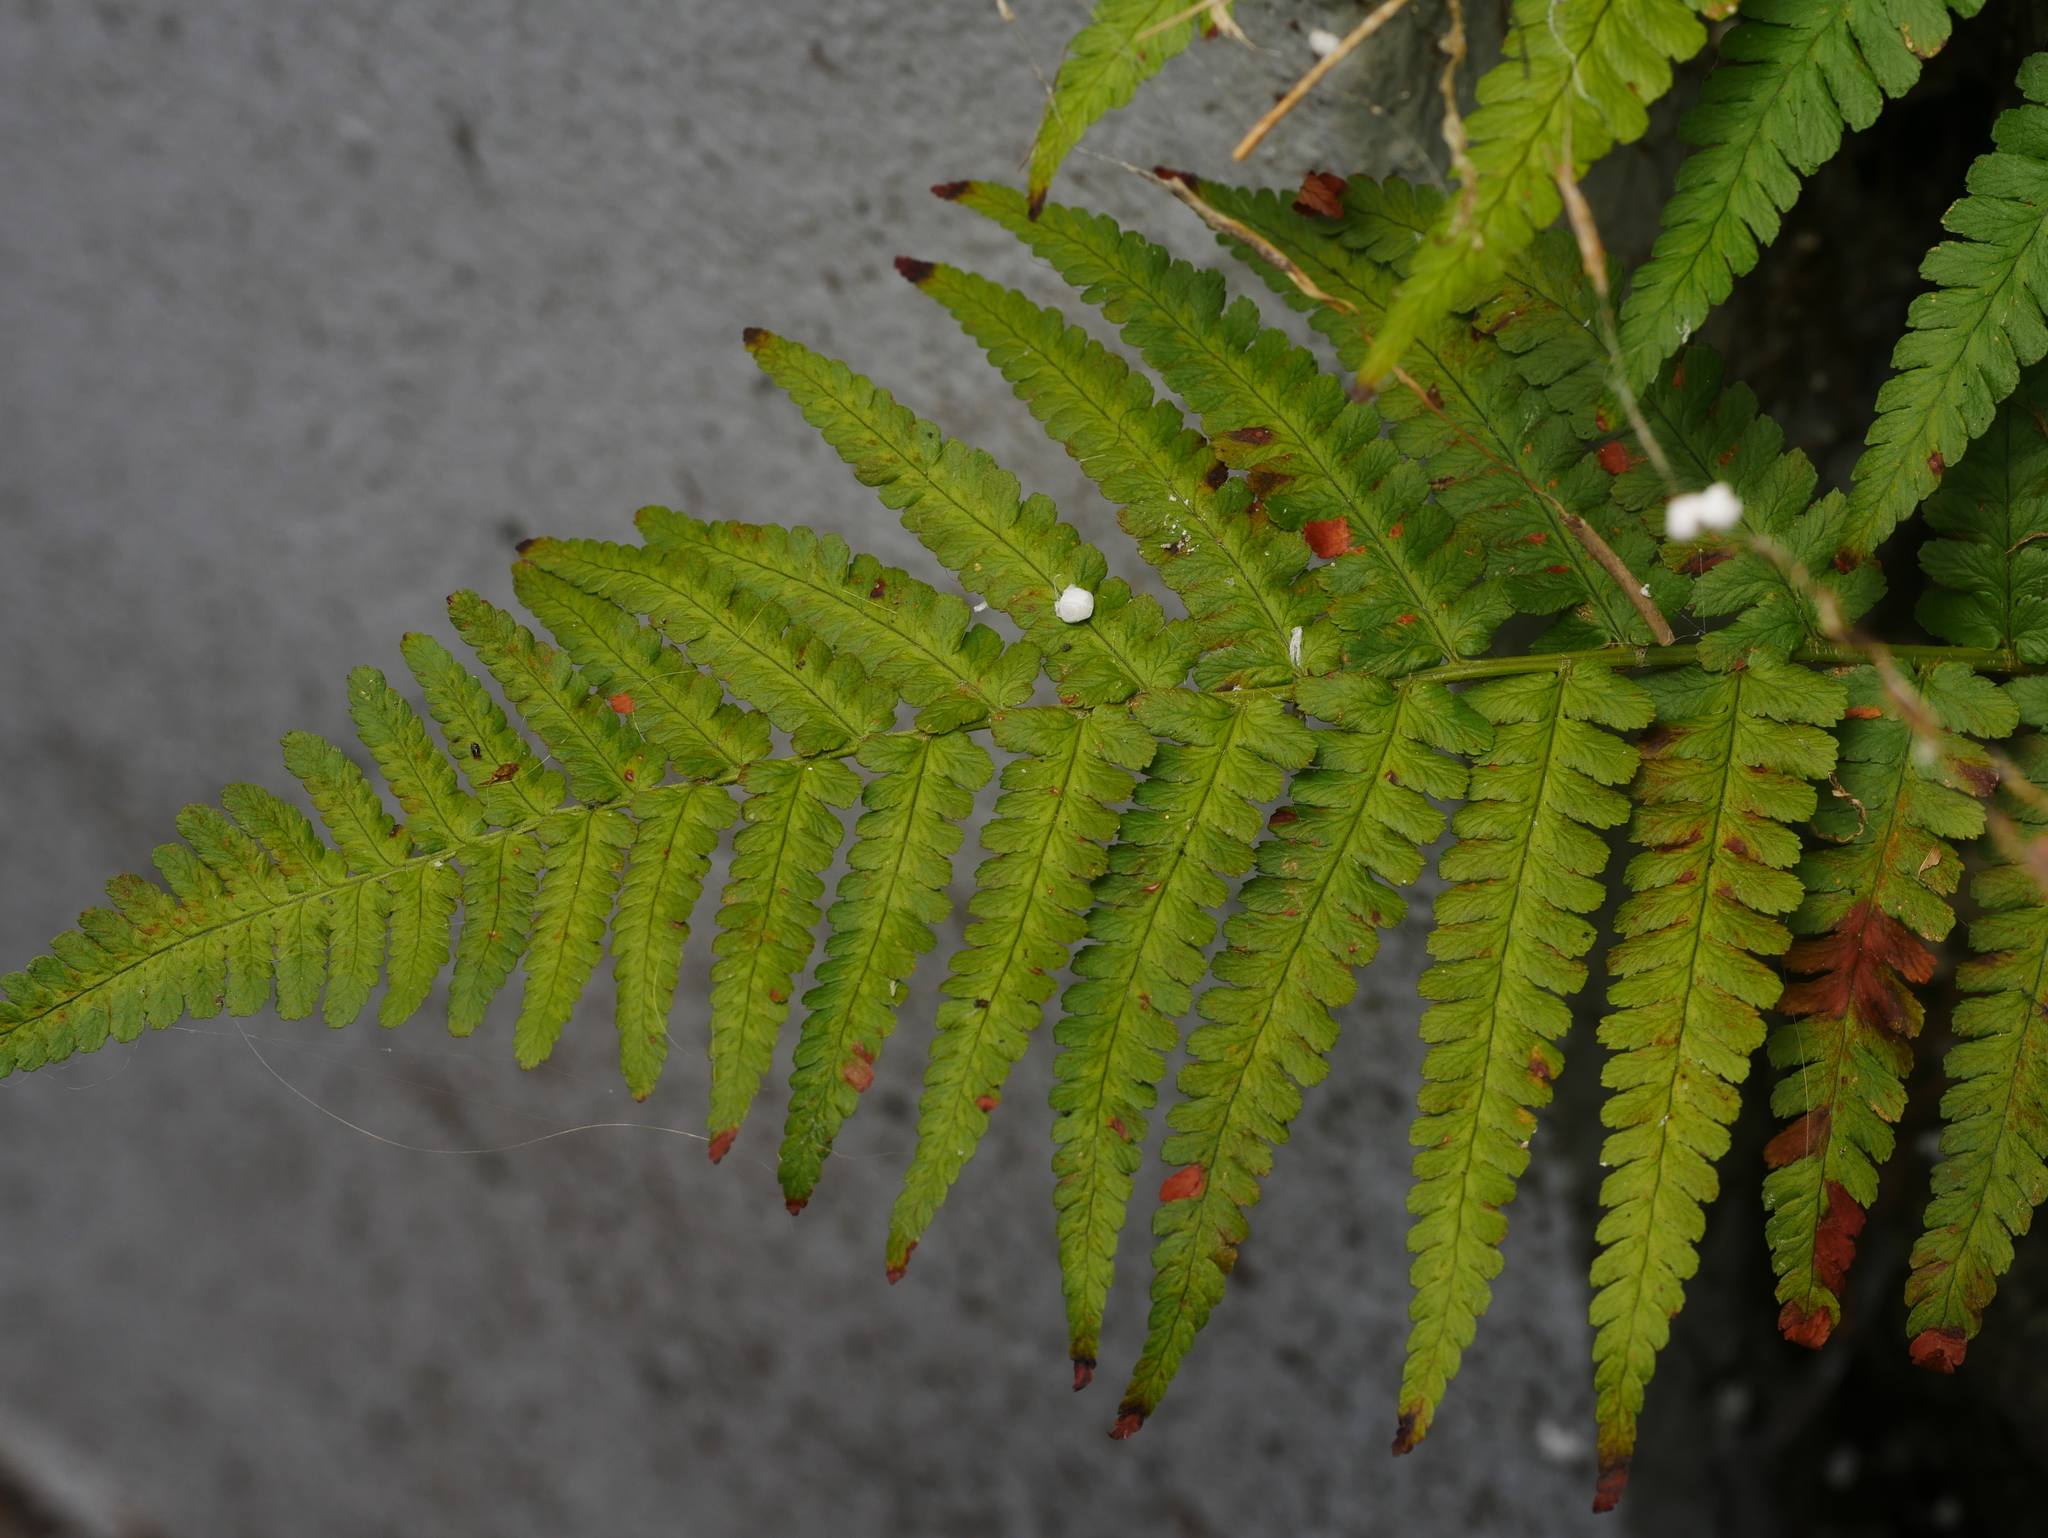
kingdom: Plantae
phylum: Tracheophyta
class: Polypodiopsida
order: Polypodiales
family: Dryopteridaceae
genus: Dryopteris
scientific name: Dryopteris filix-mas
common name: Male fern
